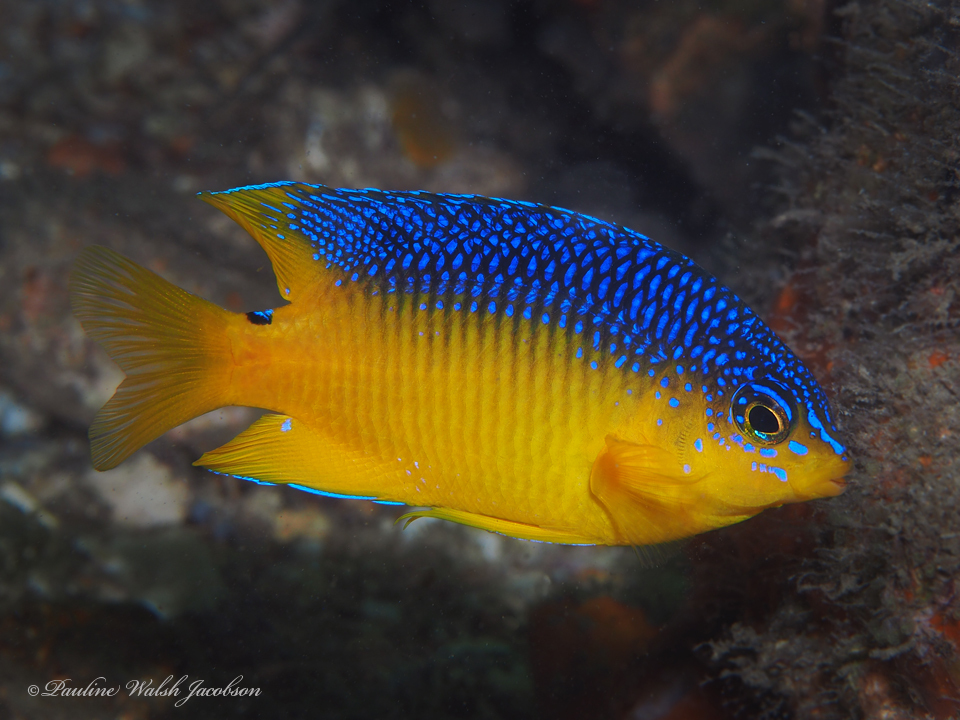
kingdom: Animalia
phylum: Chordata
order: Perciformes
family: Pomacentridae
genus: Stegastes
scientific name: Stegastes xanthurus
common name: Cocoa damselfish
